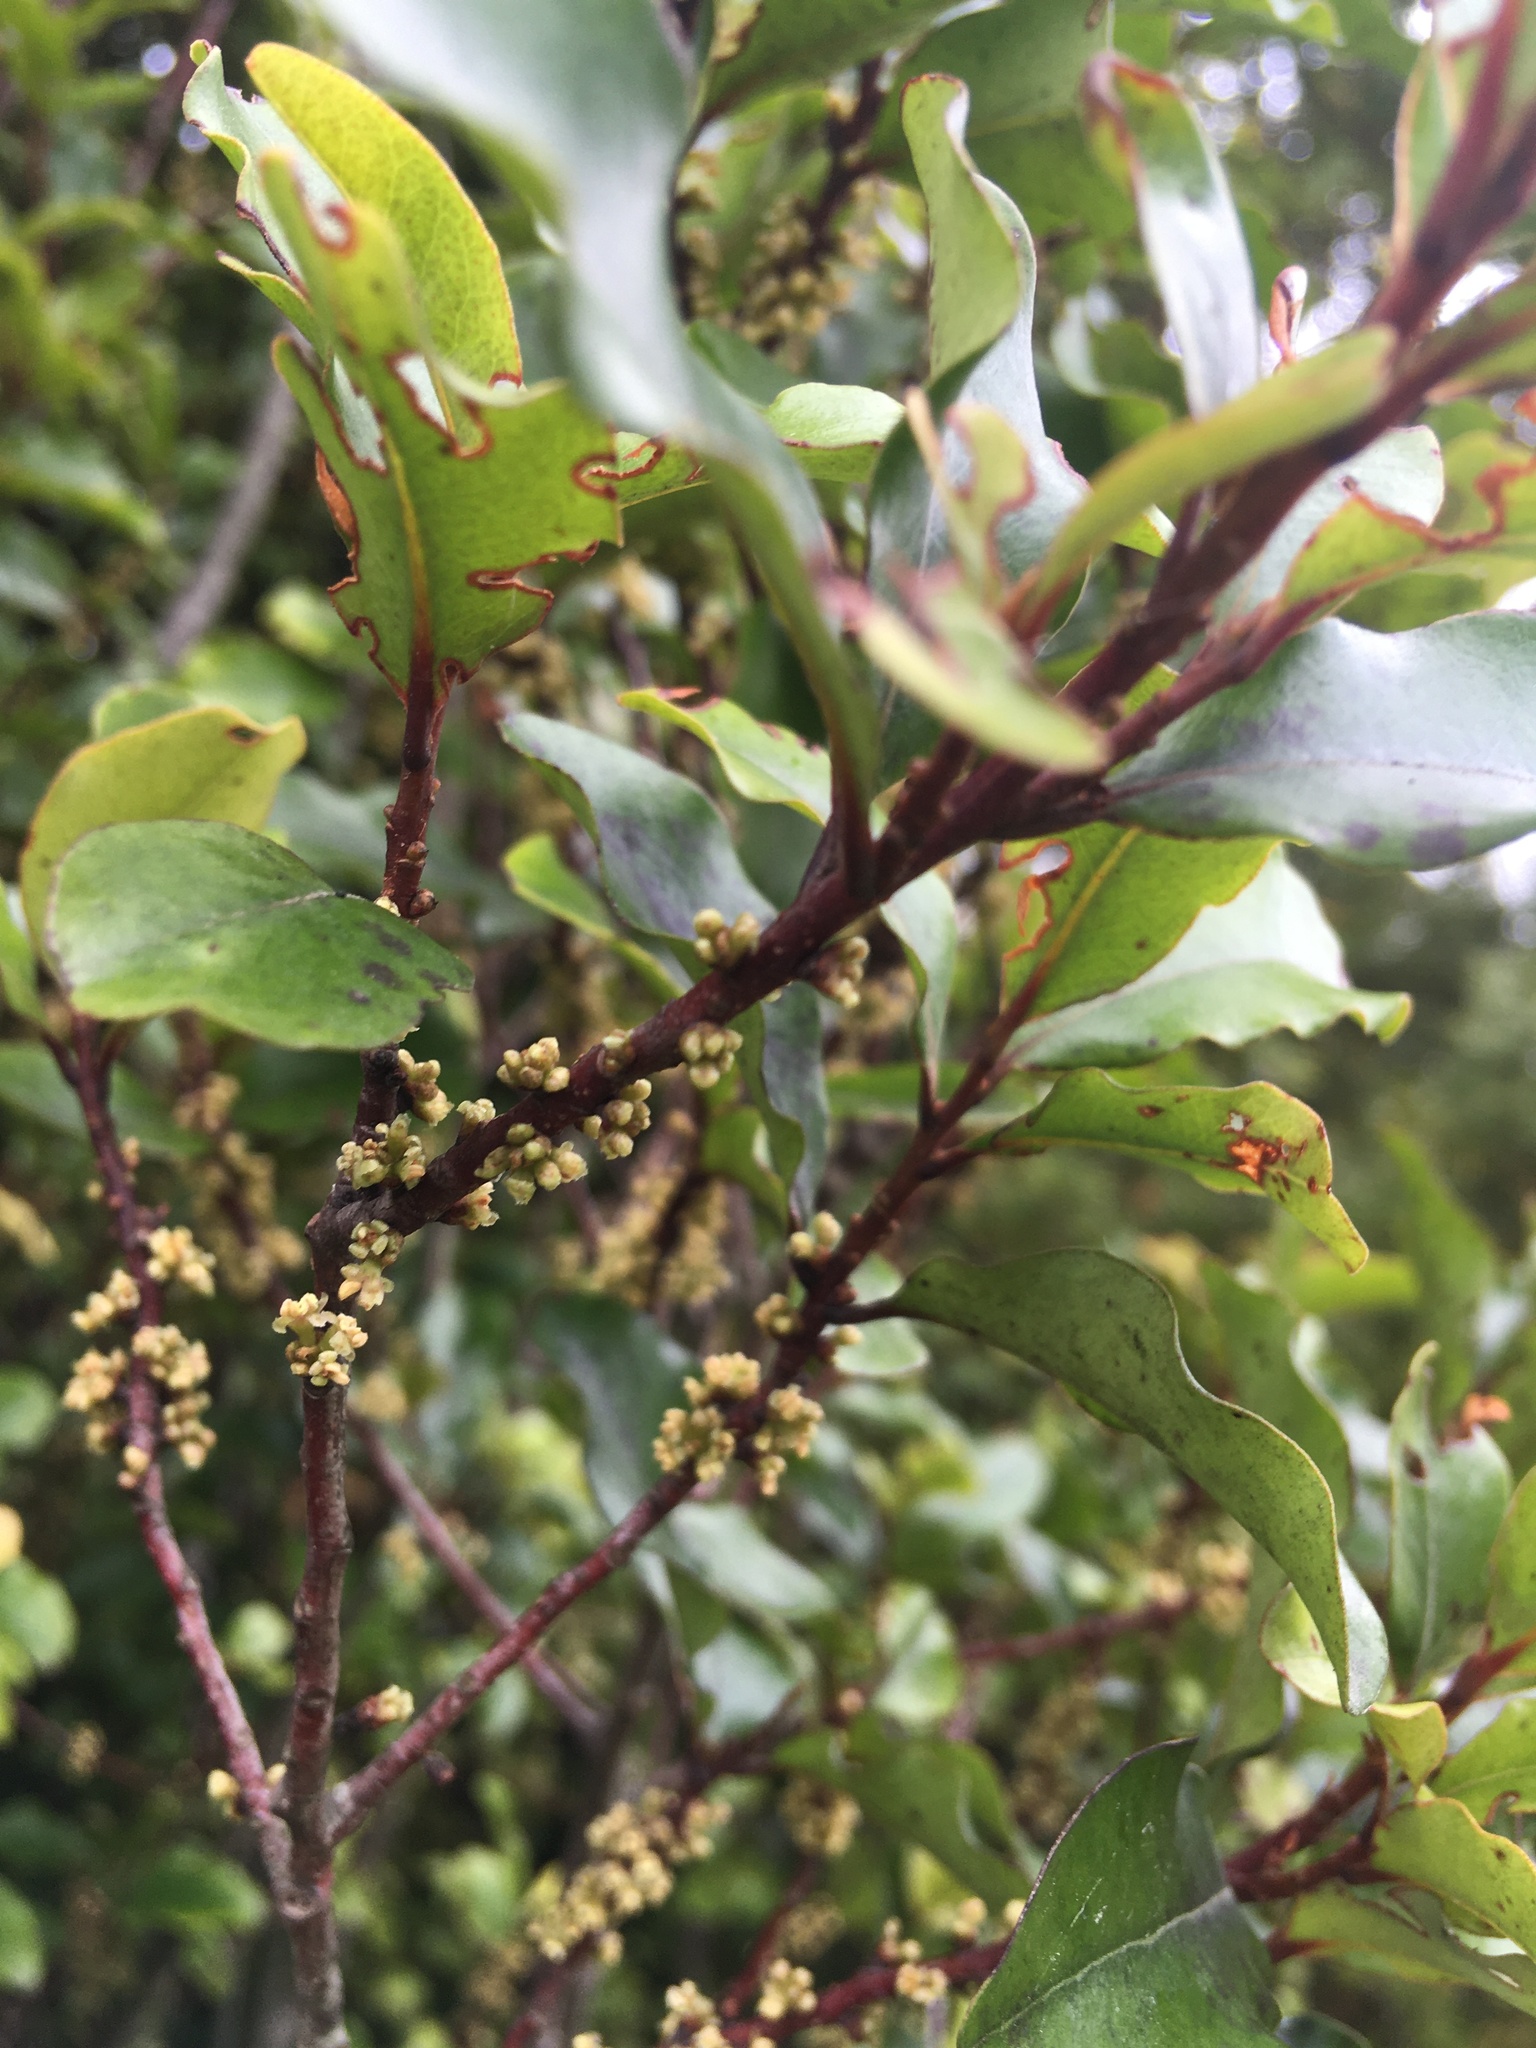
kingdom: Plantae
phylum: Tracheophyta
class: Magnoliopsida
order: Ericales
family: Primulaceae
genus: Myrsine
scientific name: Myrsine australis
